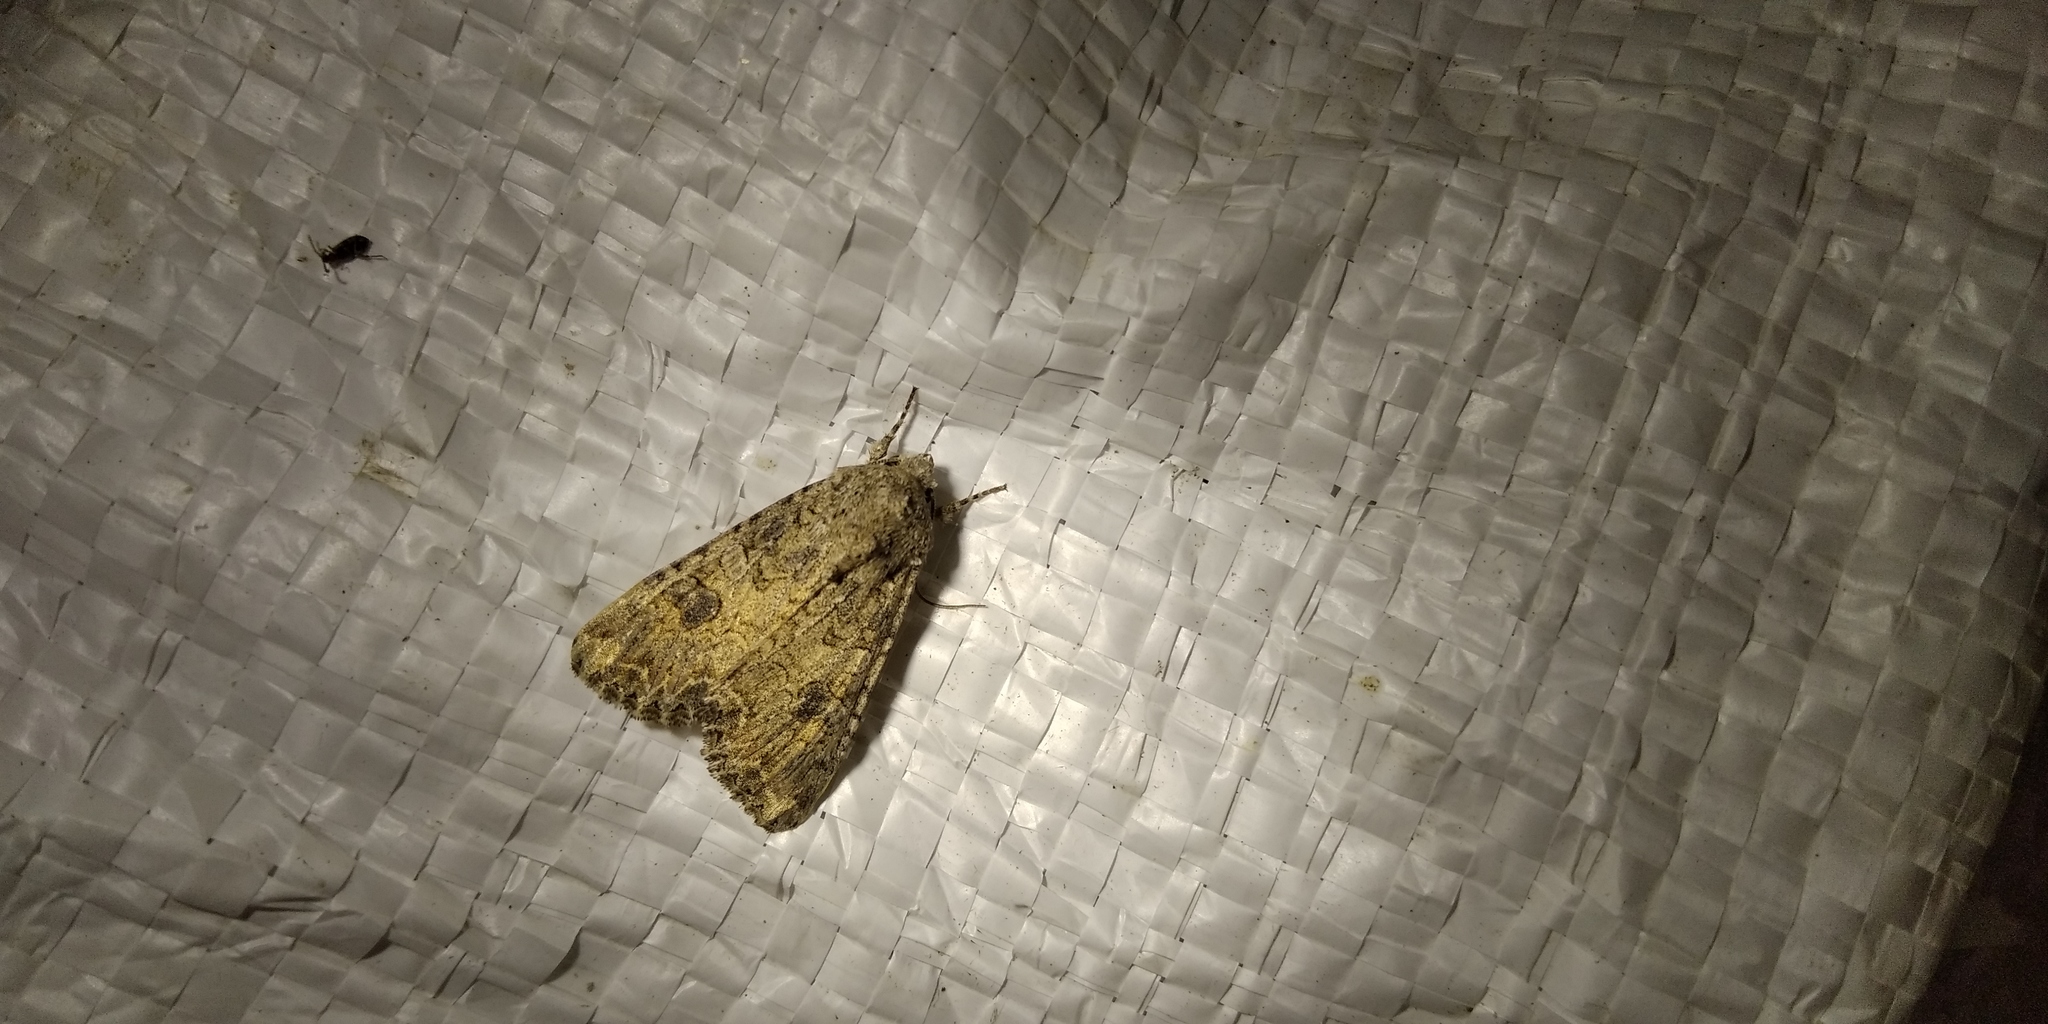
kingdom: Animalia
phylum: Arthropoda
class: Insecta
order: Lepidoptera
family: Noctuidae
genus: Anarta
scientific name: Anarta trifolii
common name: Clover cutworm moth
